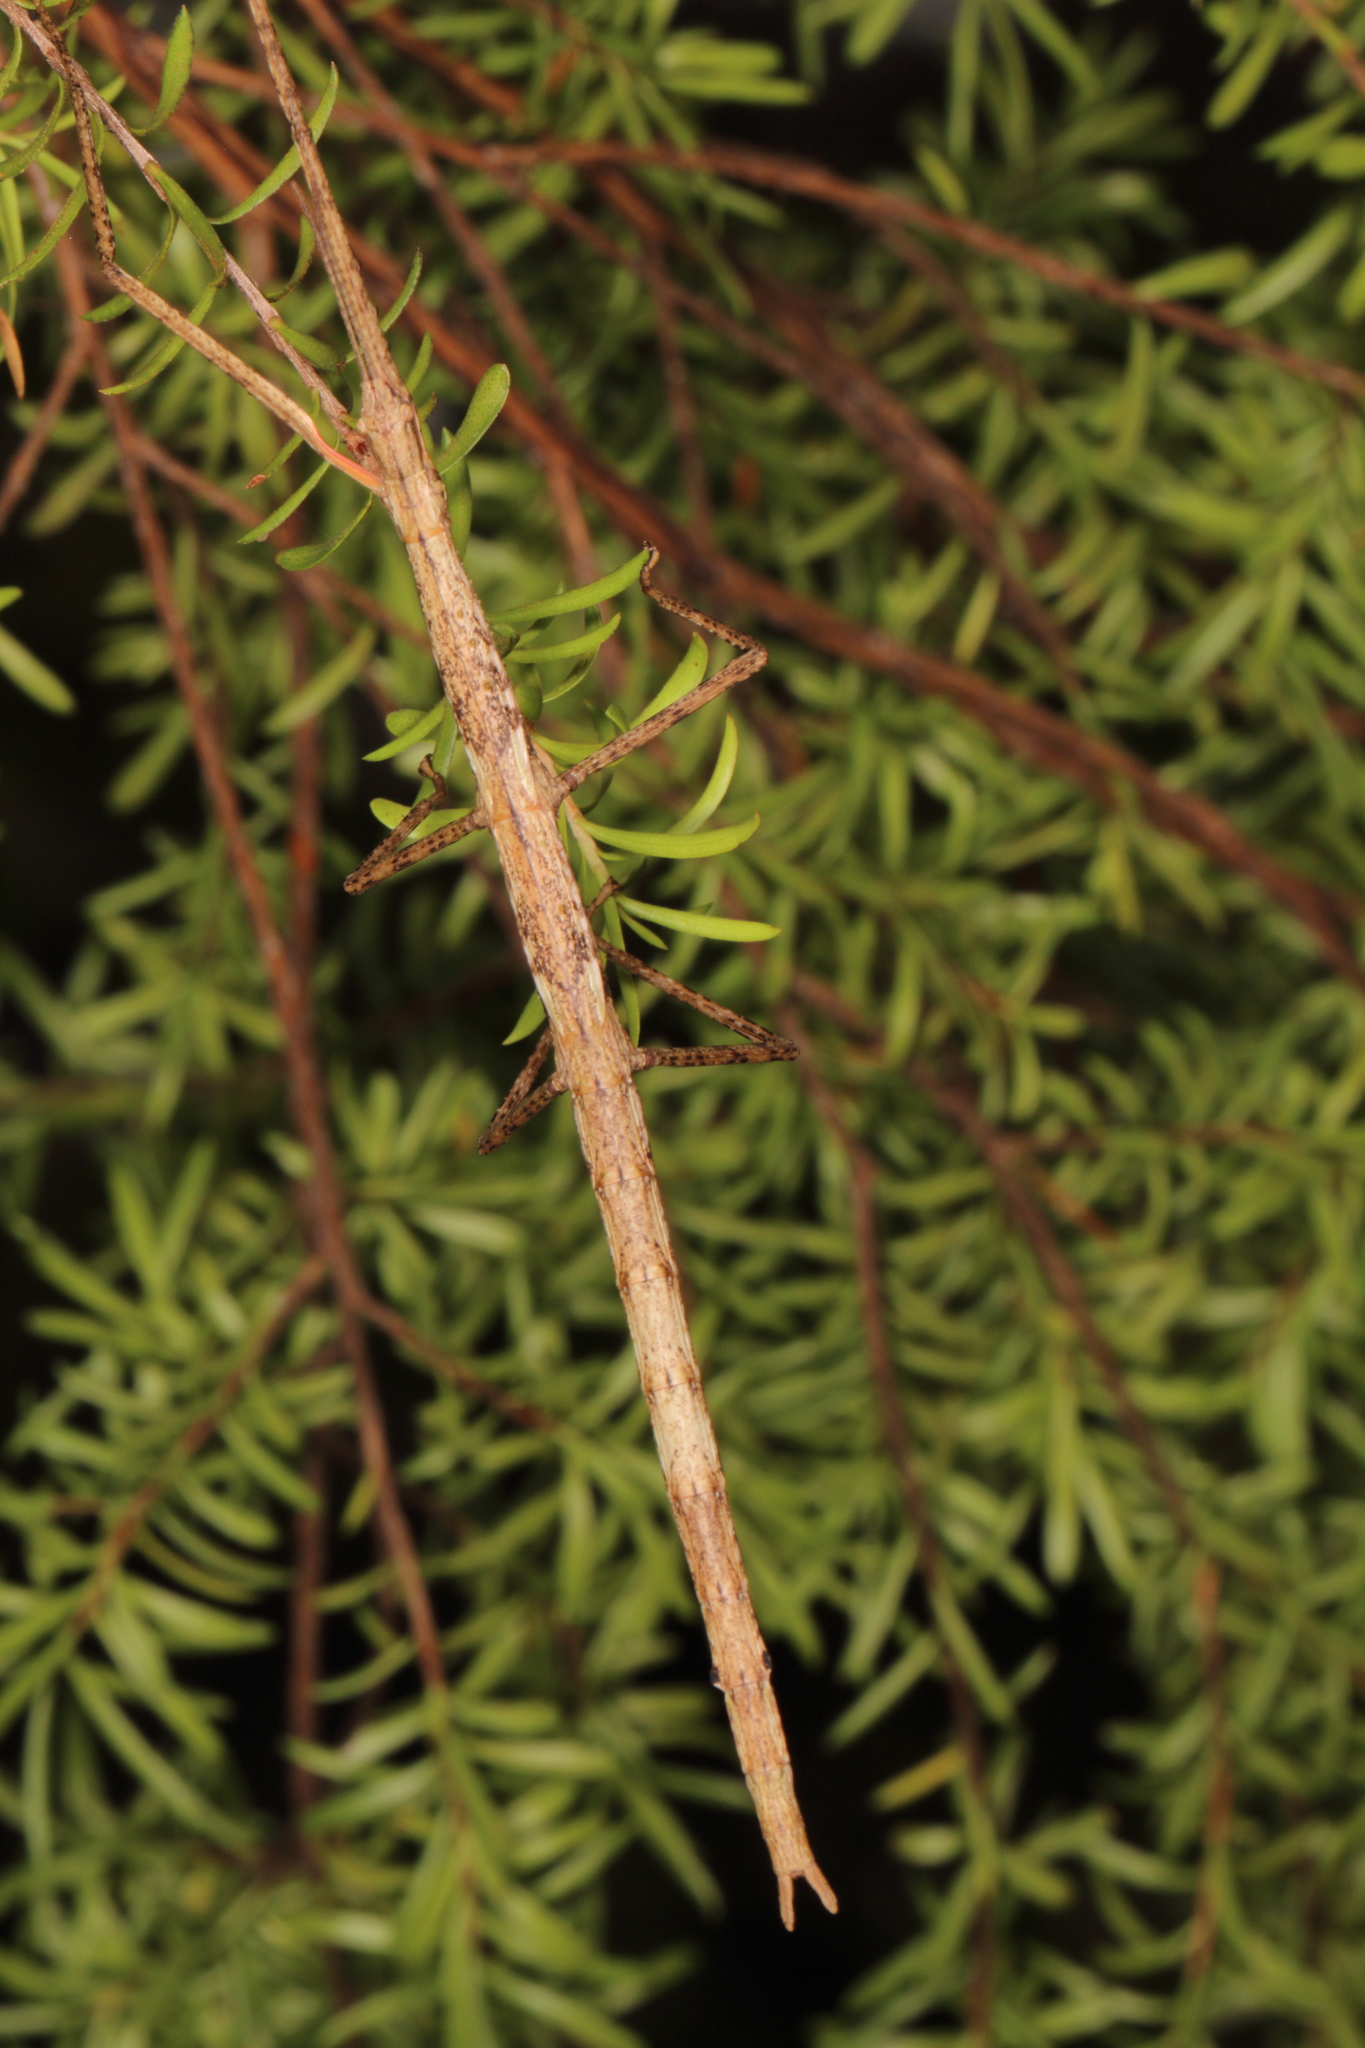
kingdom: Animalia
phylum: Arthropoda
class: Insecta
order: Phasmida
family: Phasmatidae
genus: Clitarchus
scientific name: Clitarchus hookeri
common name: Smooth stick insect
